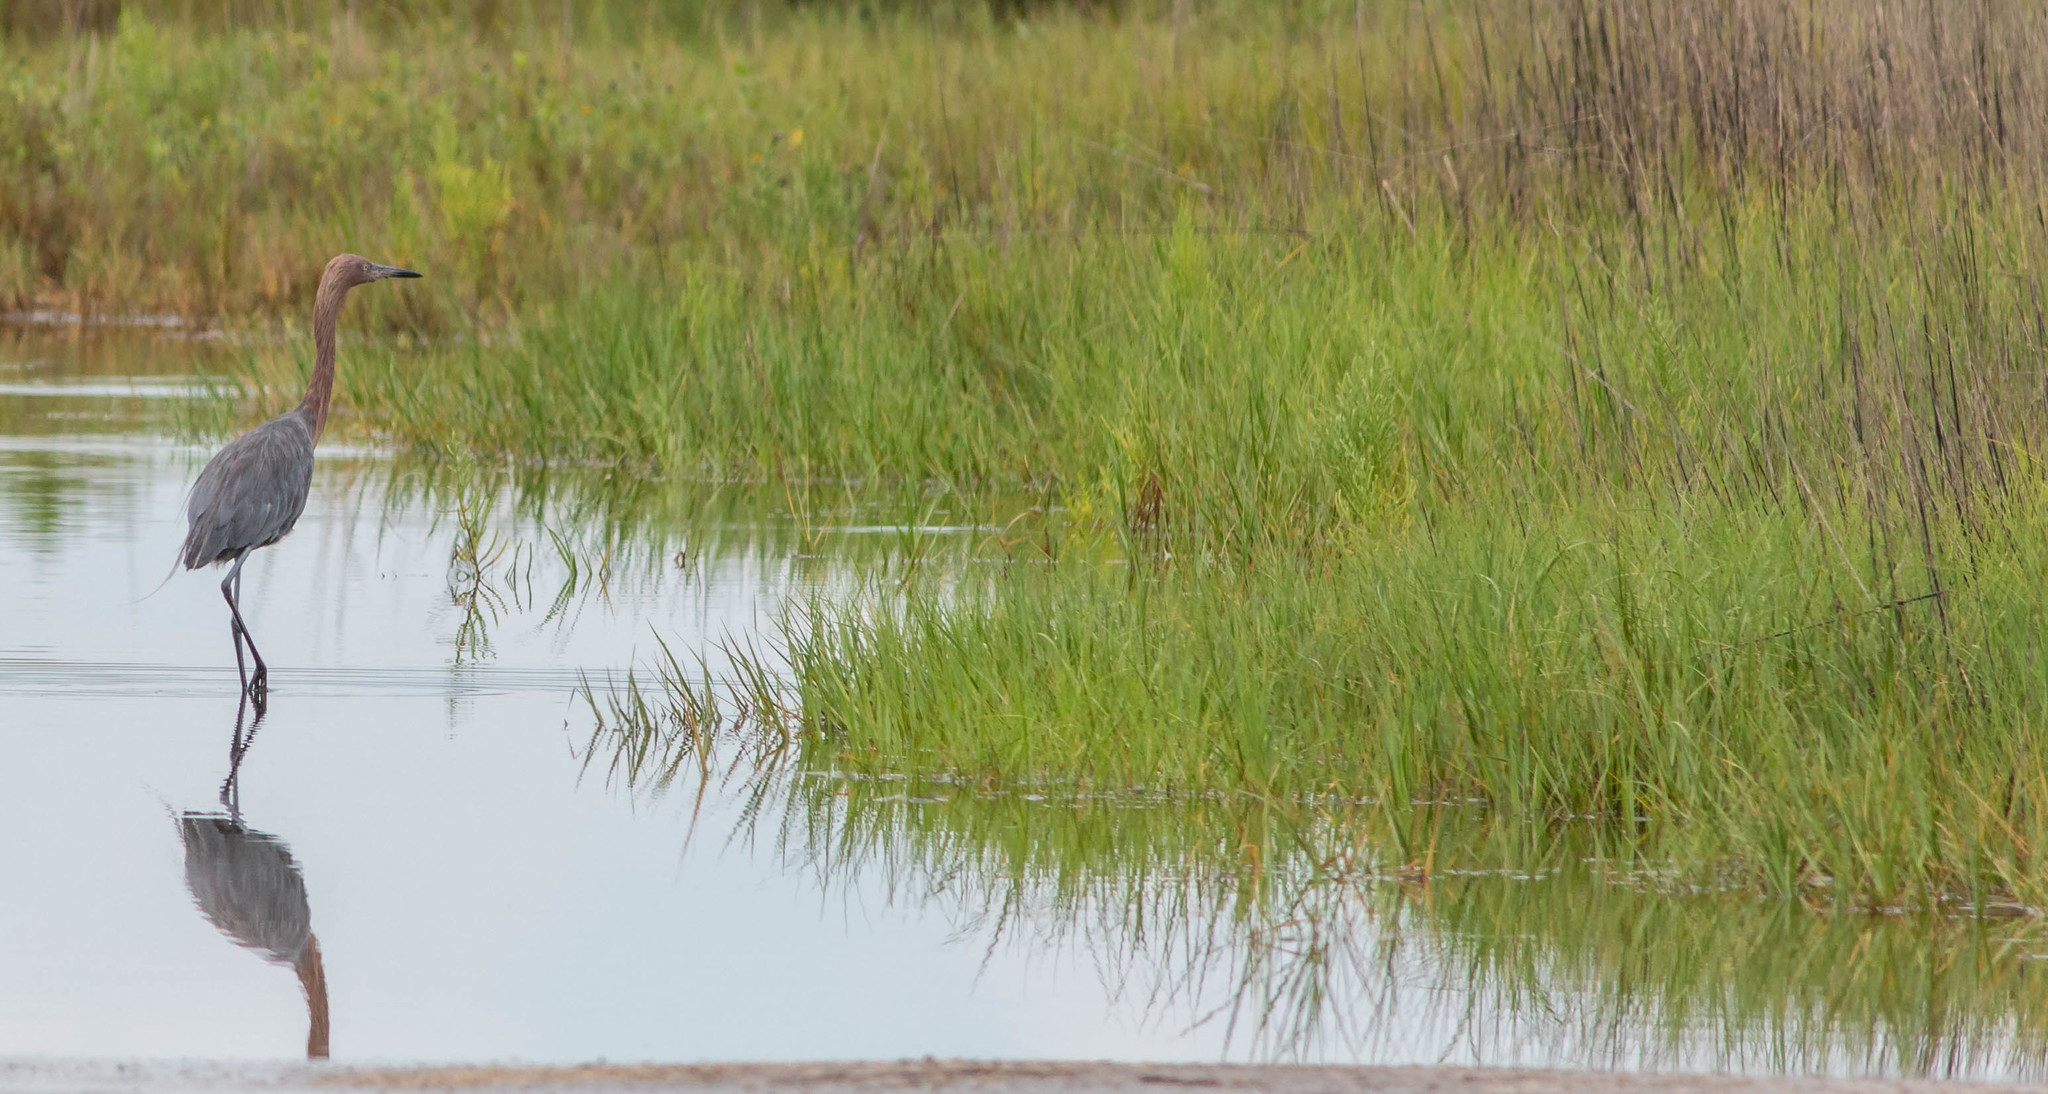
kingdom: Animalia
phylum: Chordata
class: Aves
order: Pelecaniformes
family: Ardeidae
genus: Egretta
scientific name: Egretta rufescens
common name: Reddish egret
